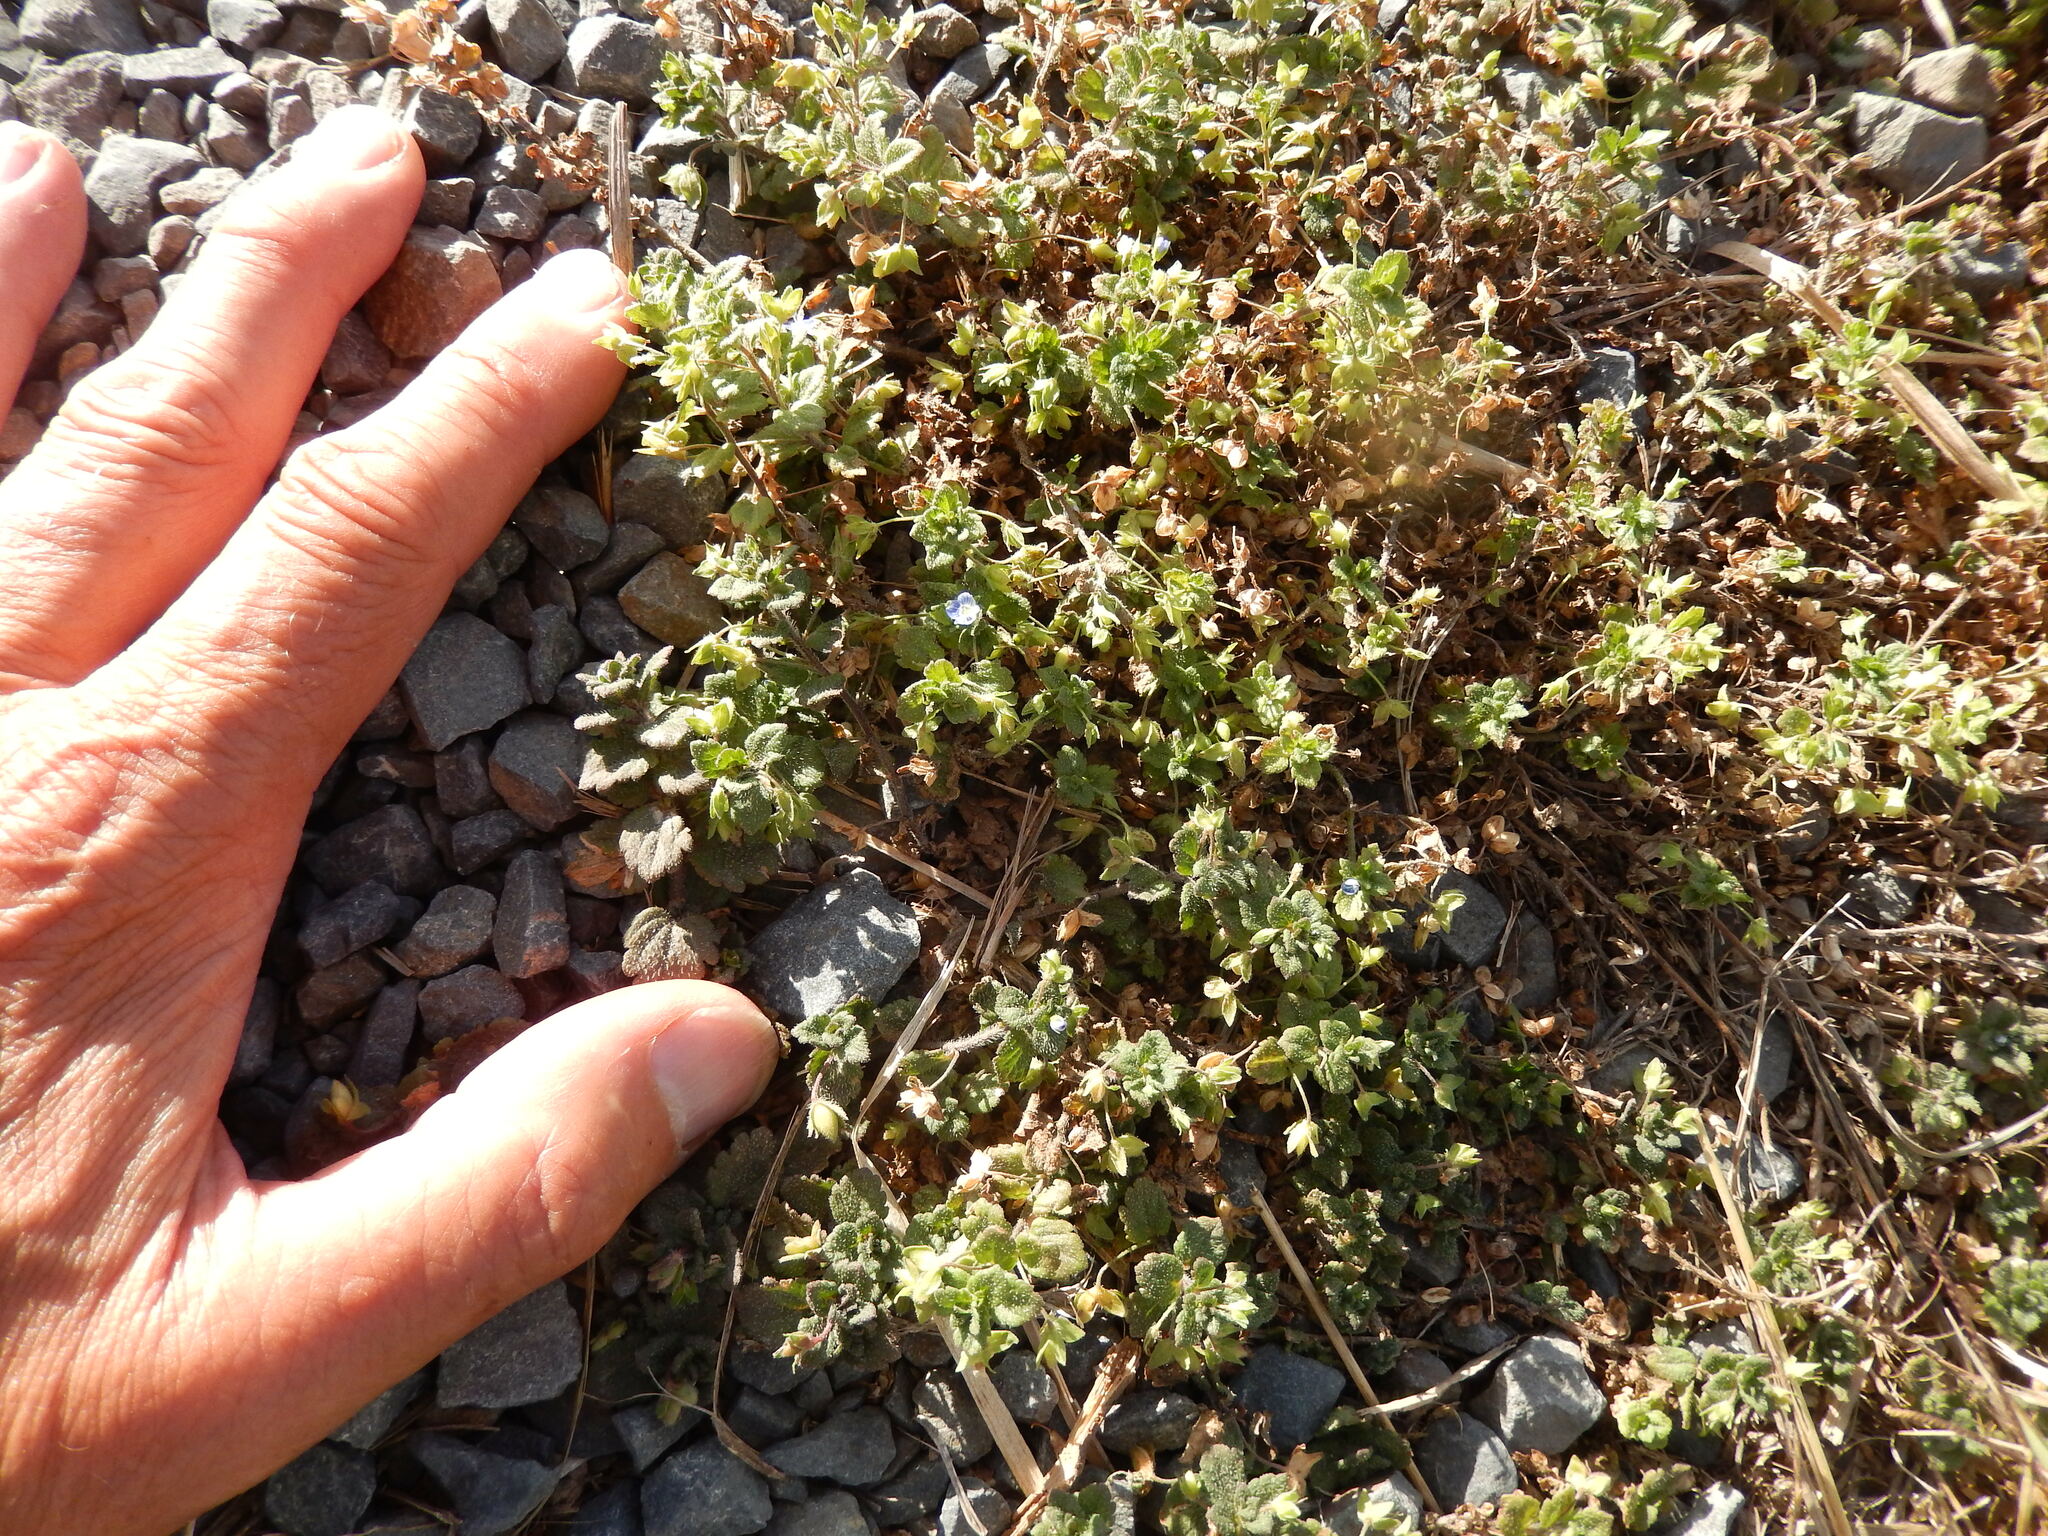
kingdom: Plantae
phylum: Tracheophyta
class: Magnoliopsida
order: Lamiales
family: Plantaginaceae
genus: Veronica
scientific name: Veronica persica
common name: Common field-speedwell
